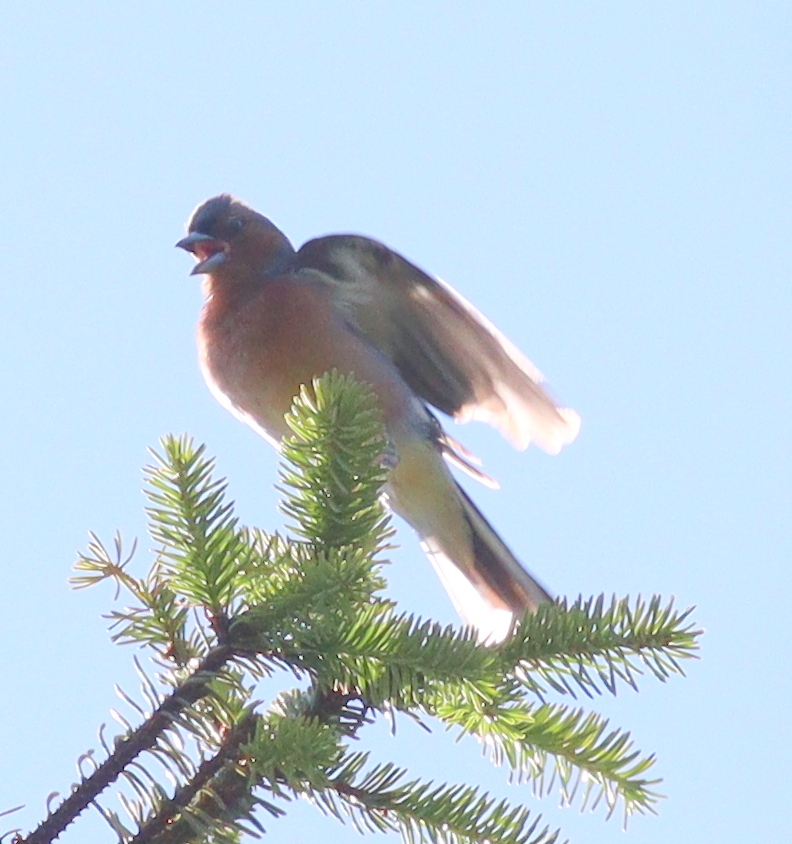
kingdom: Animalia
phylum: Chordata
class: Aves
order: Passeriformes
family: Fringillidae
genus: Fringilla
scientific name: Fringilla coelebs
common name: Common chaffinch
